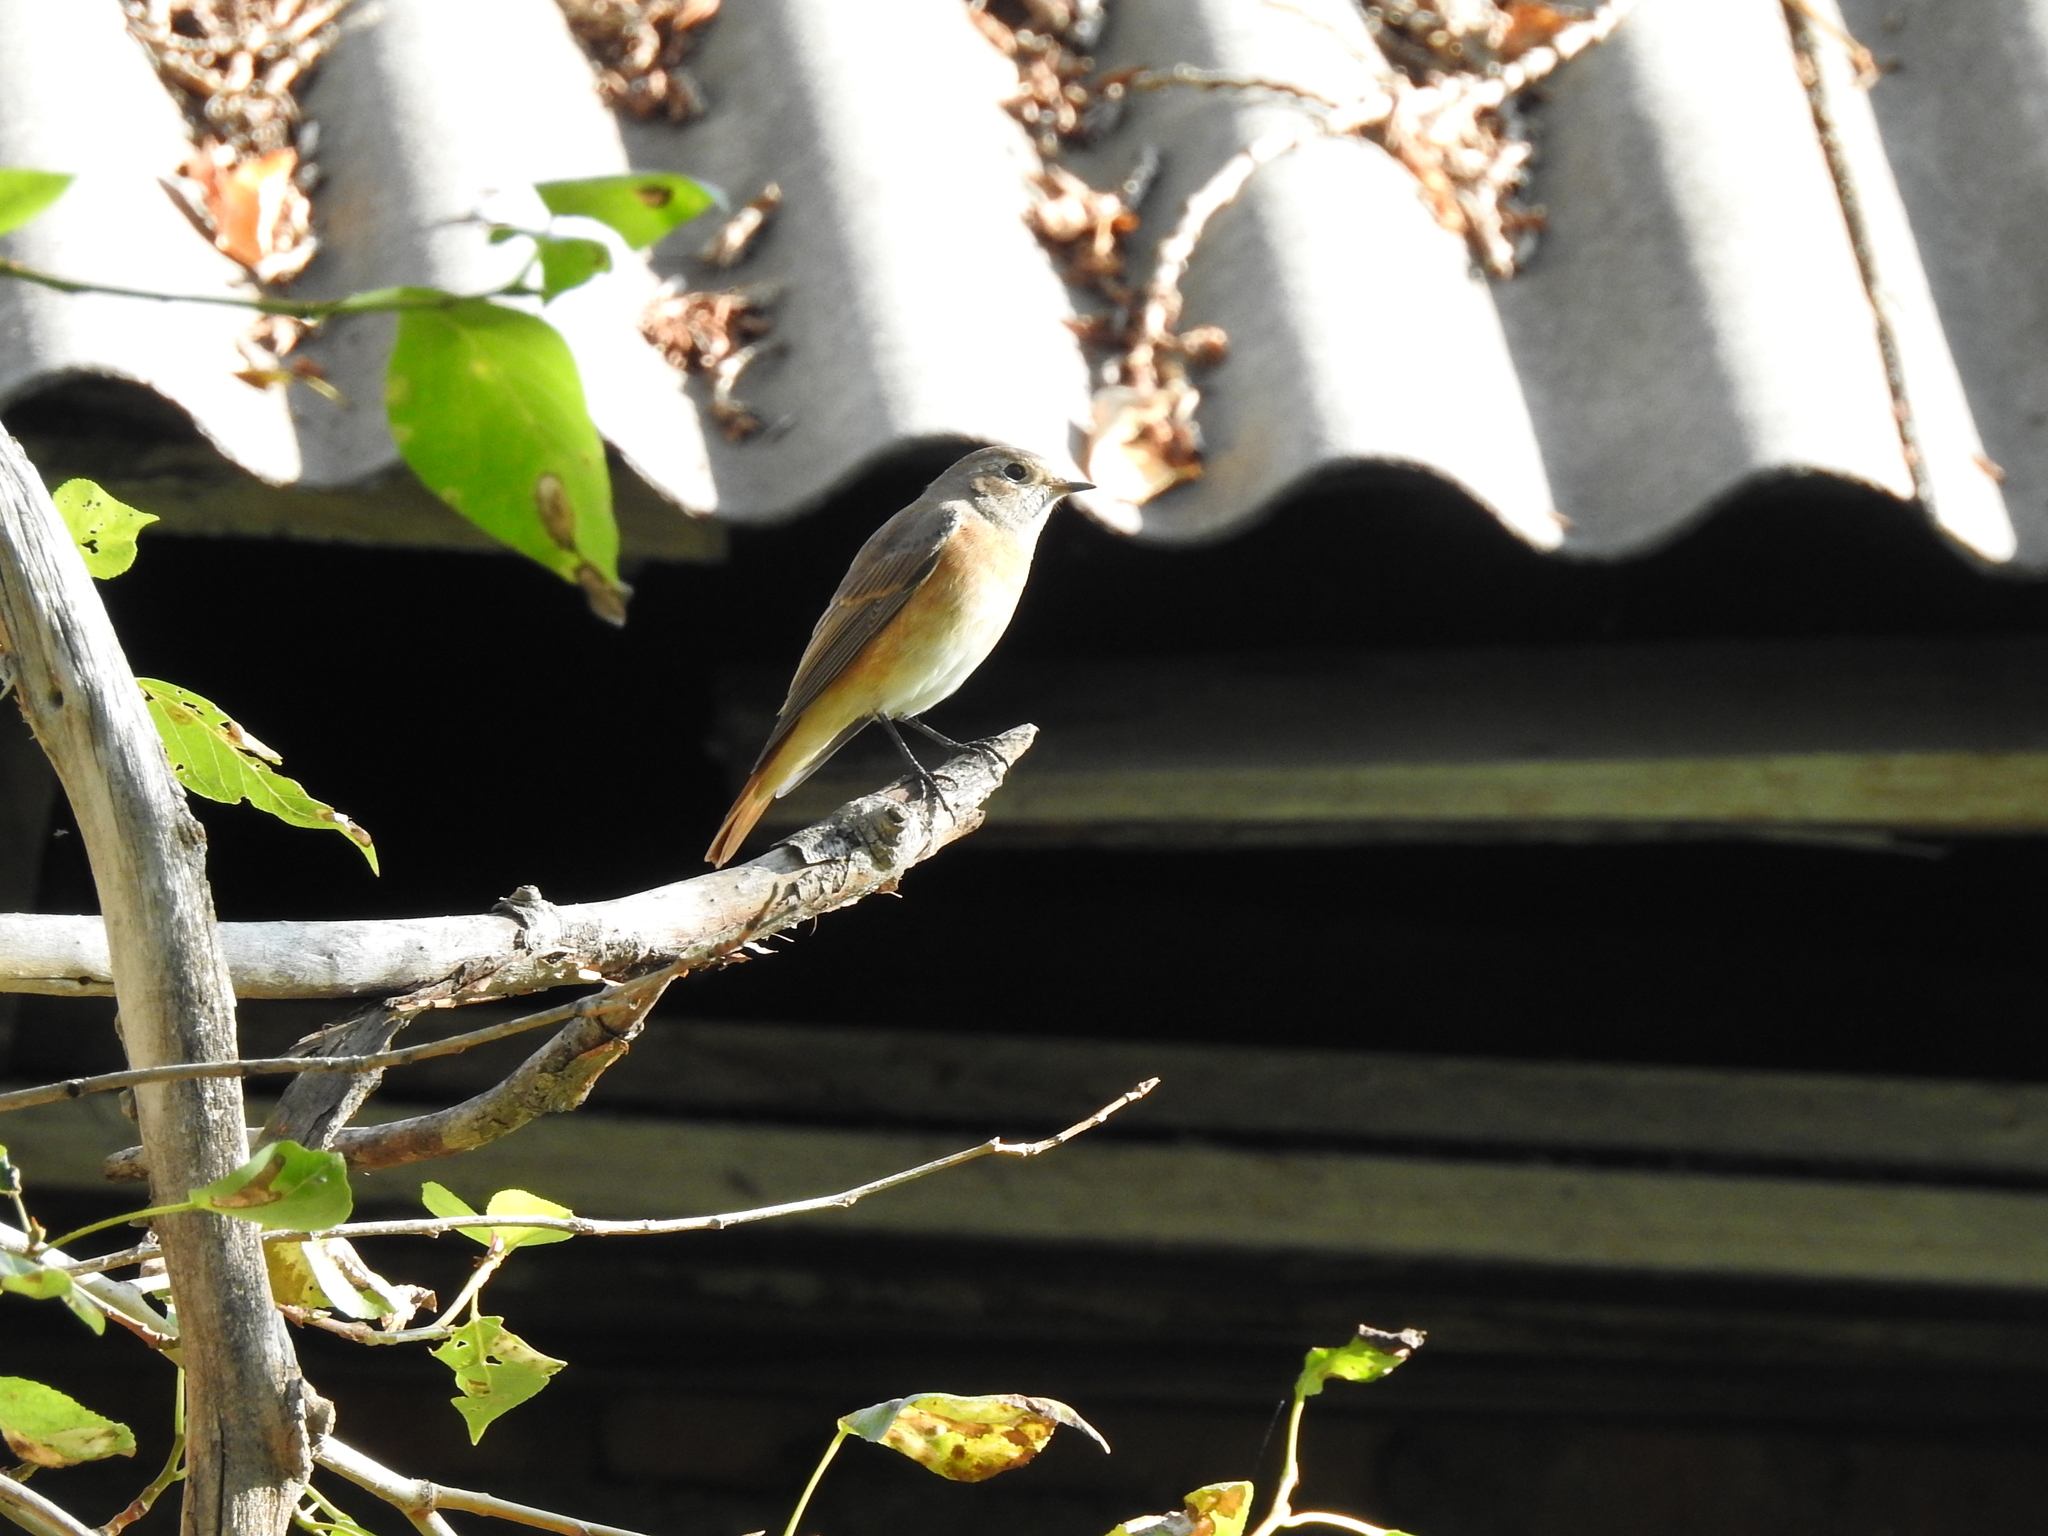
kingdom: Animalia
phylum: Chordata
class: Aves
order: Passeriformes
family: Muscicapidae
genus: Phoenicurus
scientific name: Phoenicurus phoenicurus
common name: Common redstart
